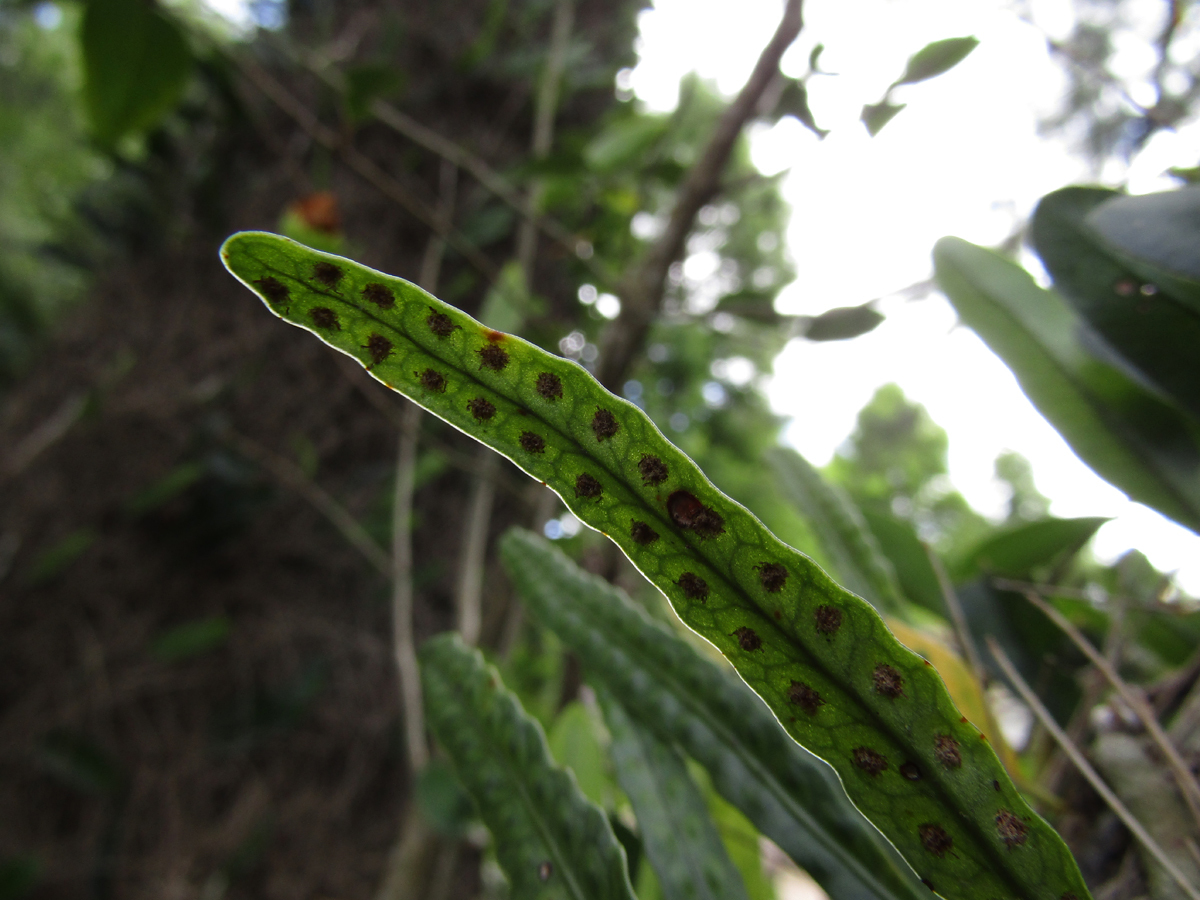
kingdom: Plantae
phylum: Tracheophyta
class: Polypodiopsida
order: Polypodiales
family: Polypodiaceae
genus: Microgramma
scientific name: Microgramma mortoniana
